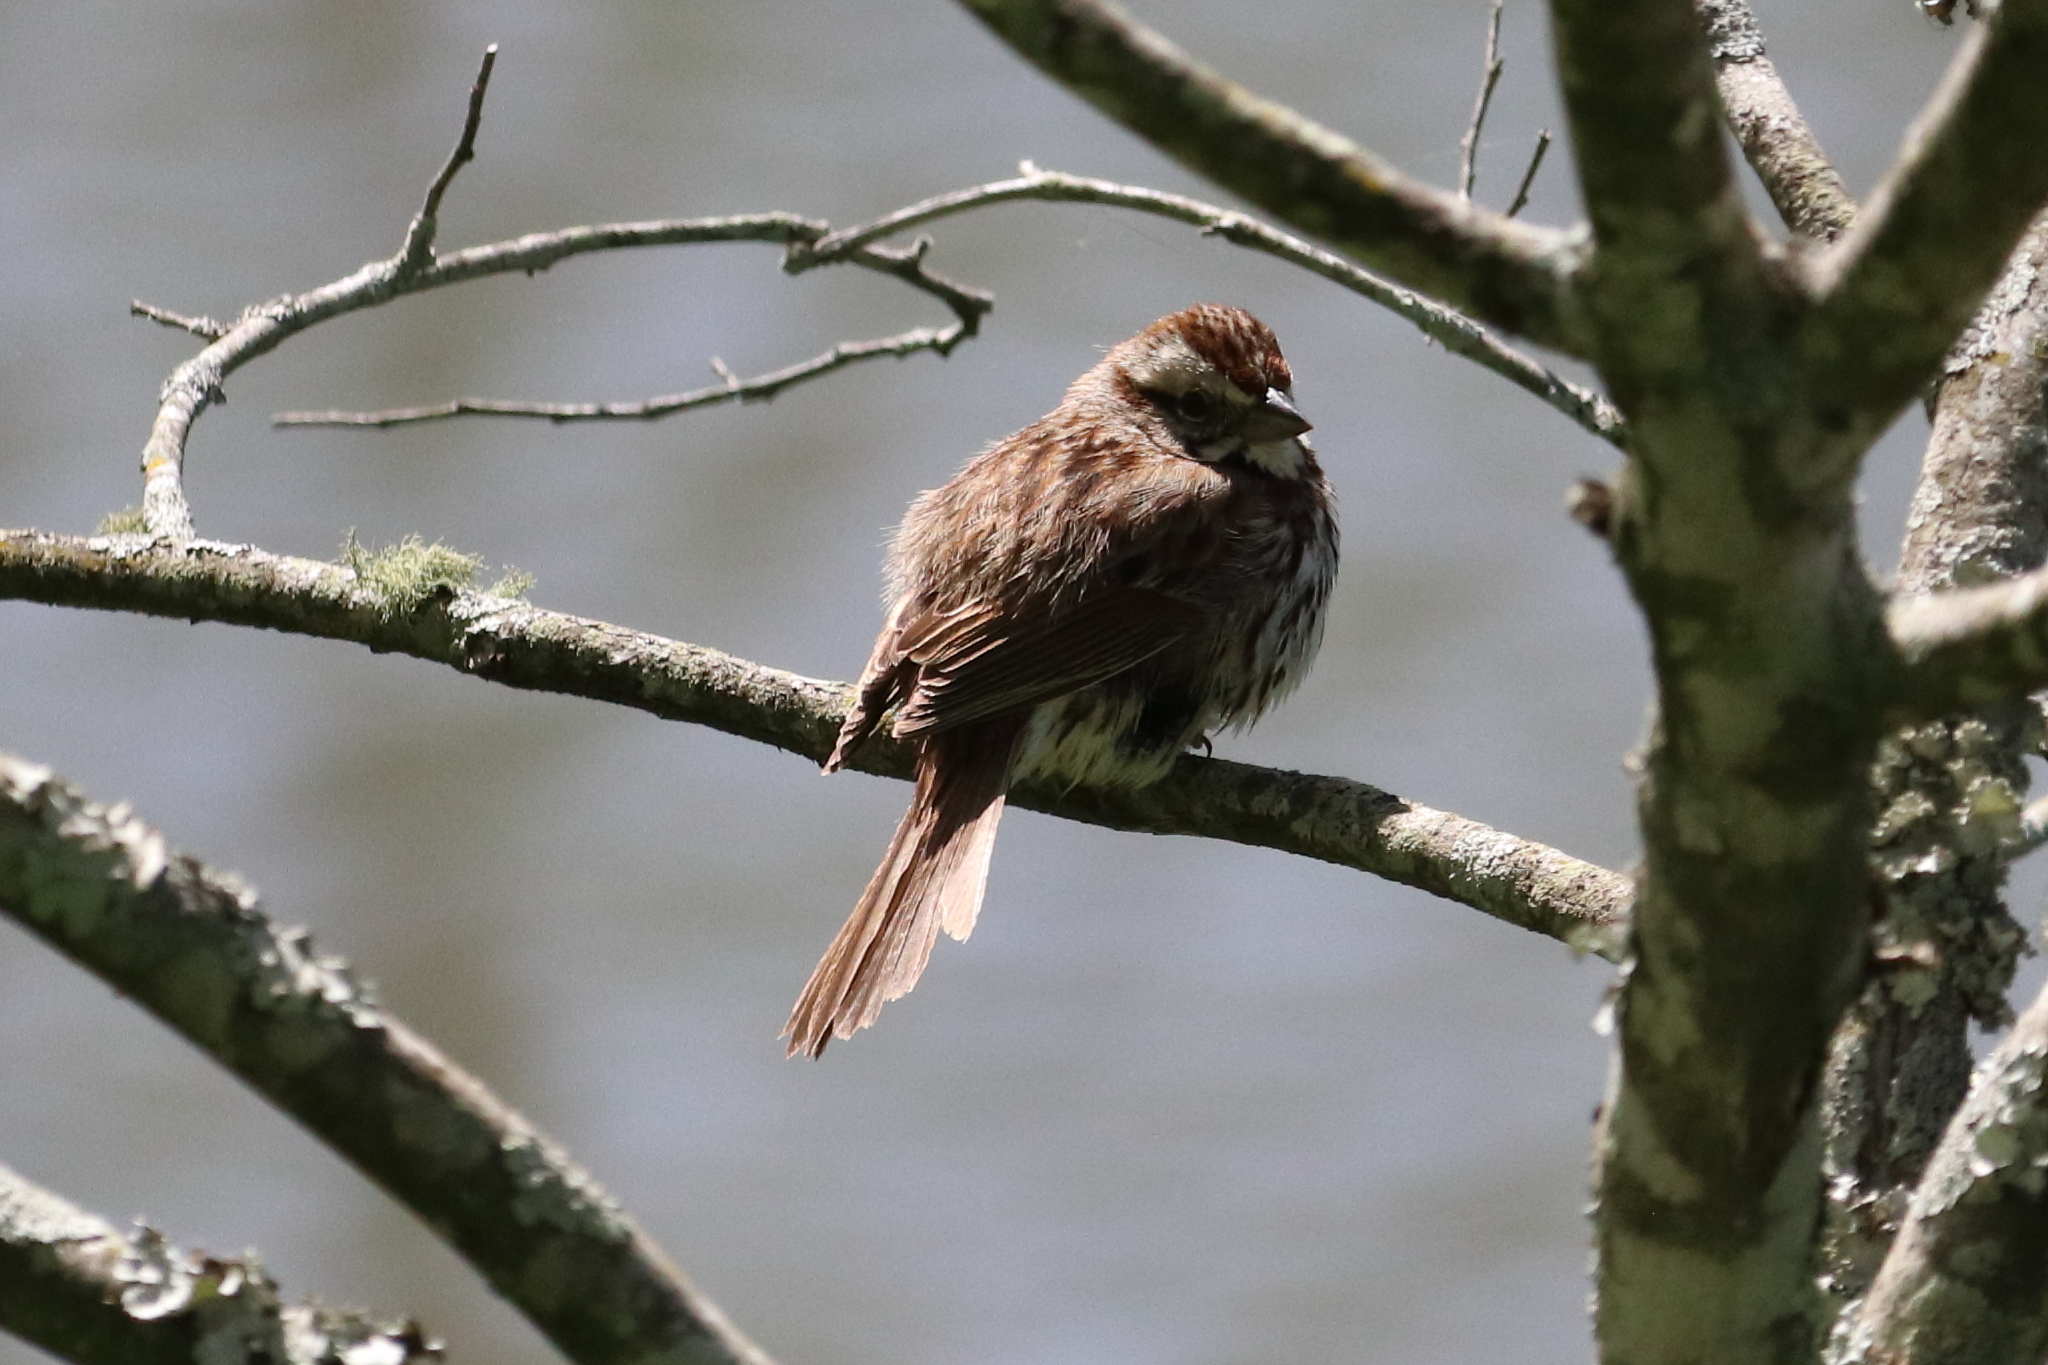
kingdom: Animalia
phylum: Chordata
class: Aves
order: Passeriformes
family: Passerellidae
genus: Melospiza
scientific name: Melospiza melodia
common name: Song sparrow
